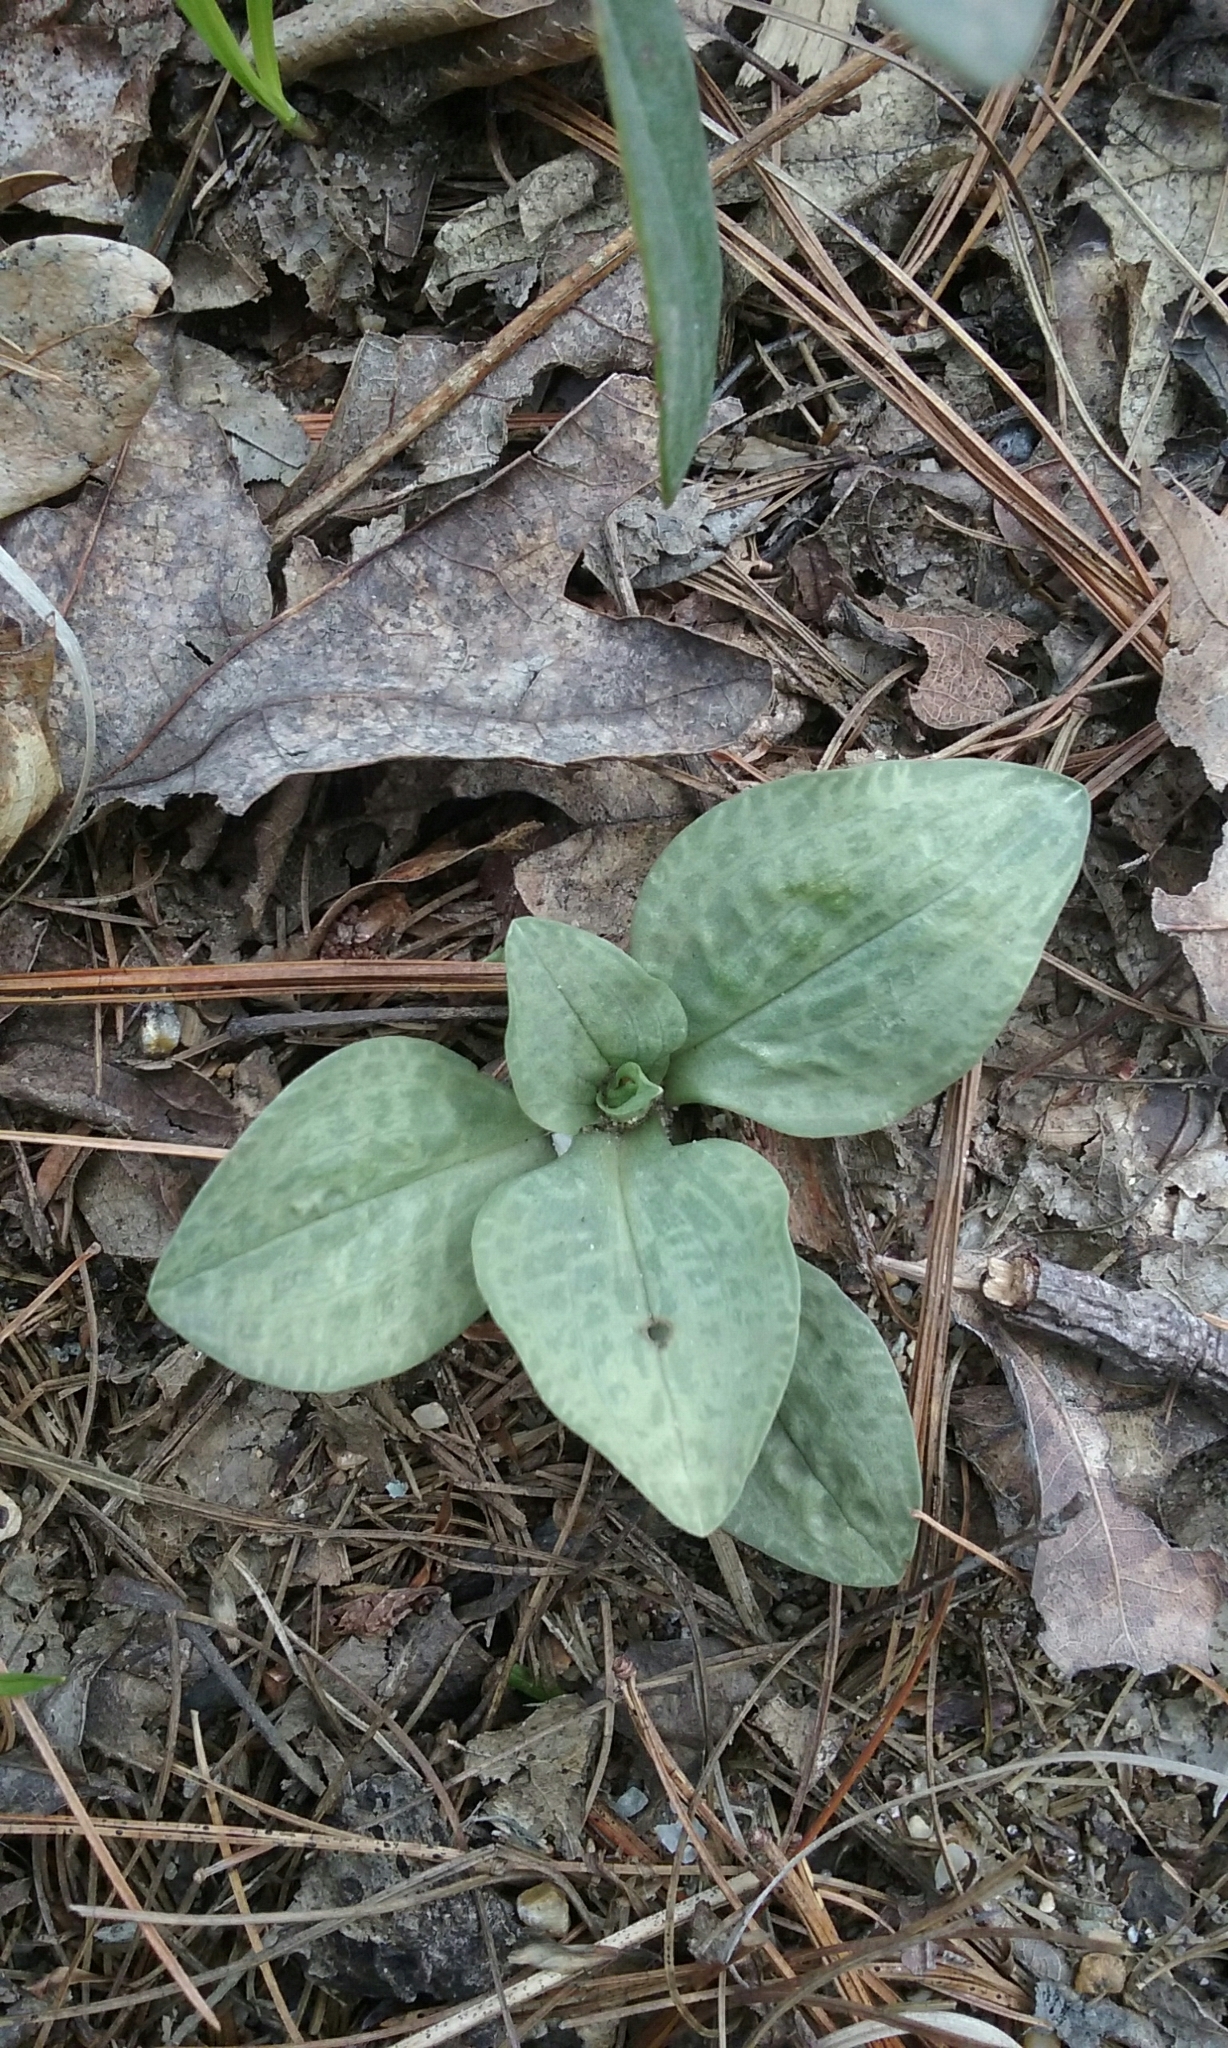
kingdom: Plantae
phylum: Tracheophyta
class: Liliopsida
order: Asparagales
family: Orchidaceae
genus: Goodyera
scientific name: Goodyera tesselata
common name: Checkered rattlesnake-plantain
